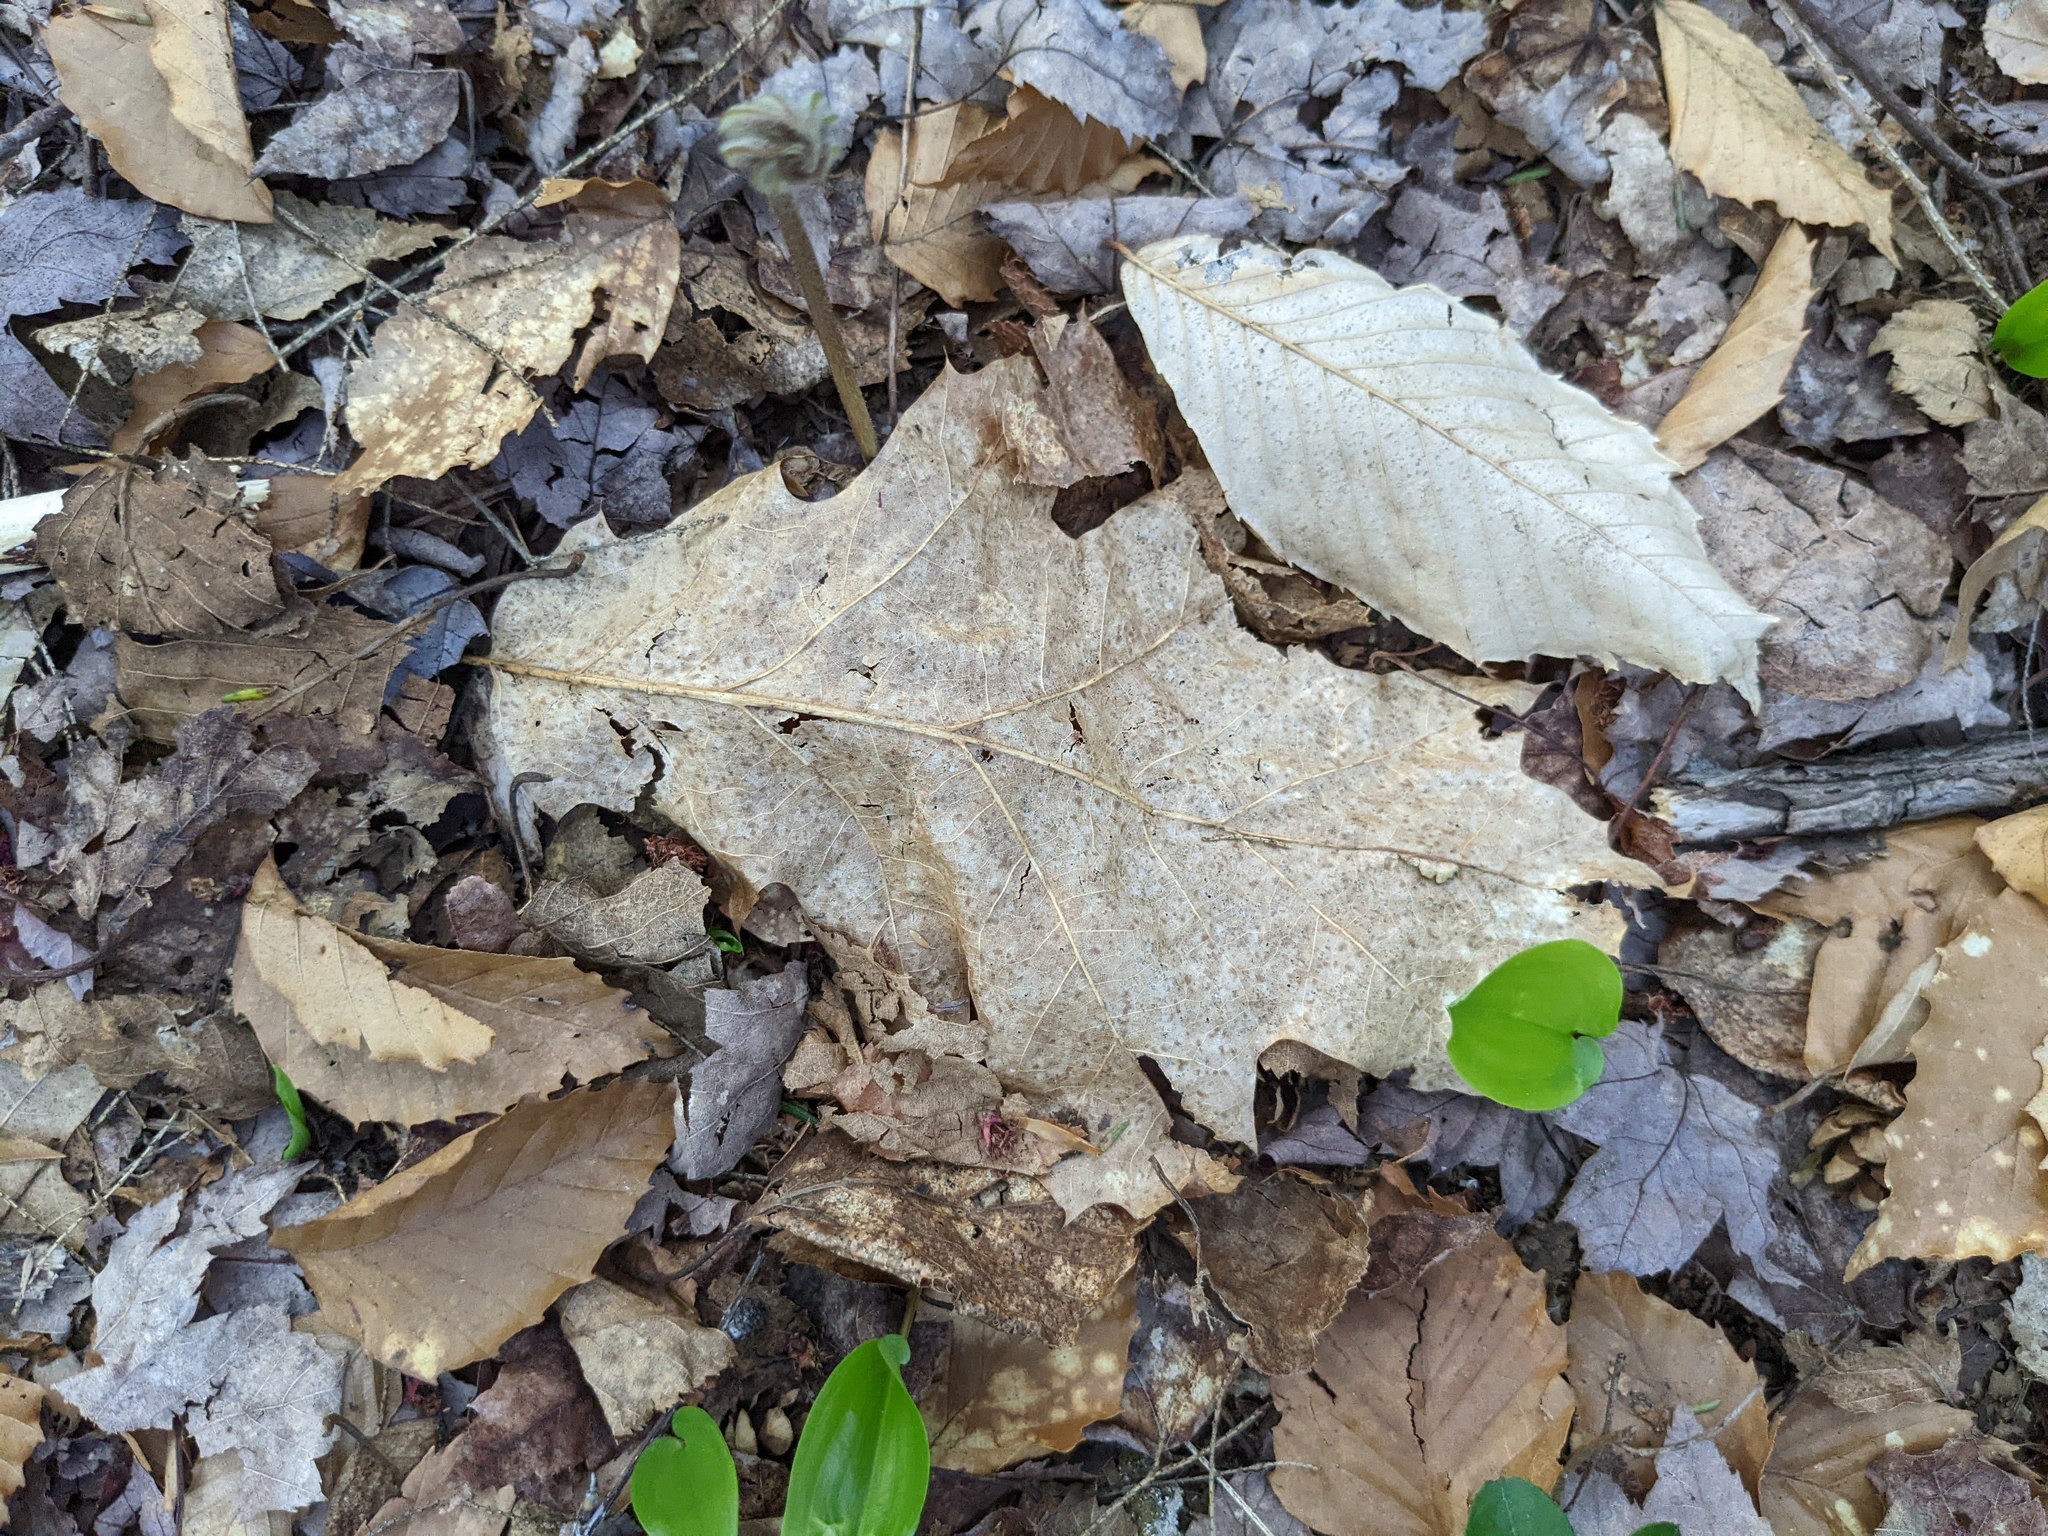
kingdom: Plantae
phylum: Tracheophyta
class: Liliopsida
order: Asparagales
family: Asparagaceae
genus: Maianthemum
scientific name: Maianthemum canadense
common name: False lily-of-the-valley
